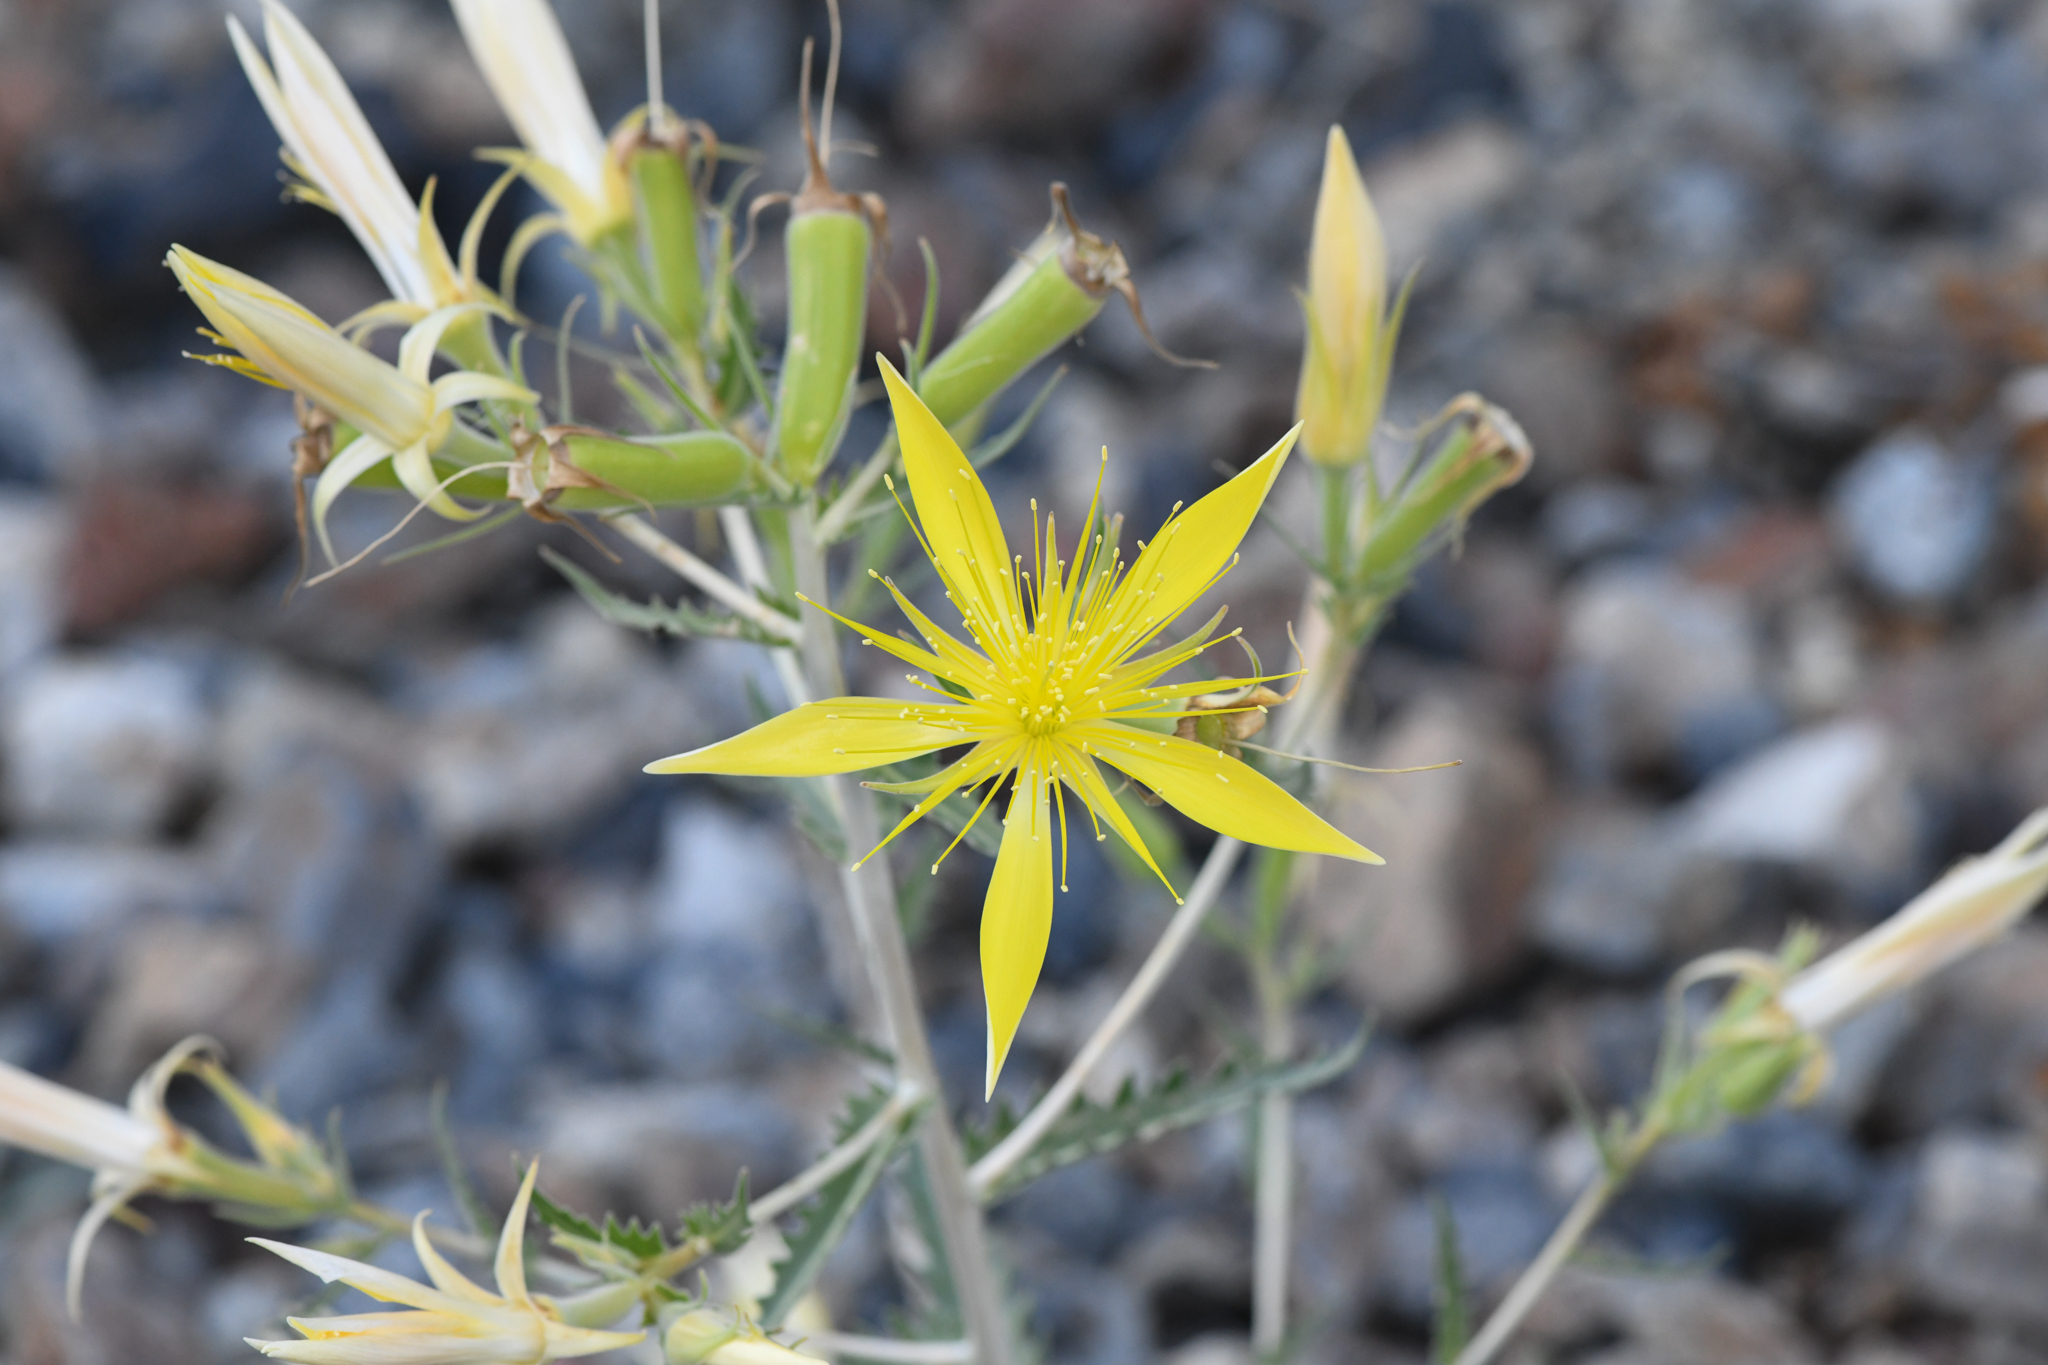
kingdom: Plantae
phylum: Tracheophyta
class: Magnoliopsida
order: Cornales
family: Loasaceae
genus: Mentzelia
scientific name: Mentzelia laevicaulis
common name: Smooth-stem blazingstar
